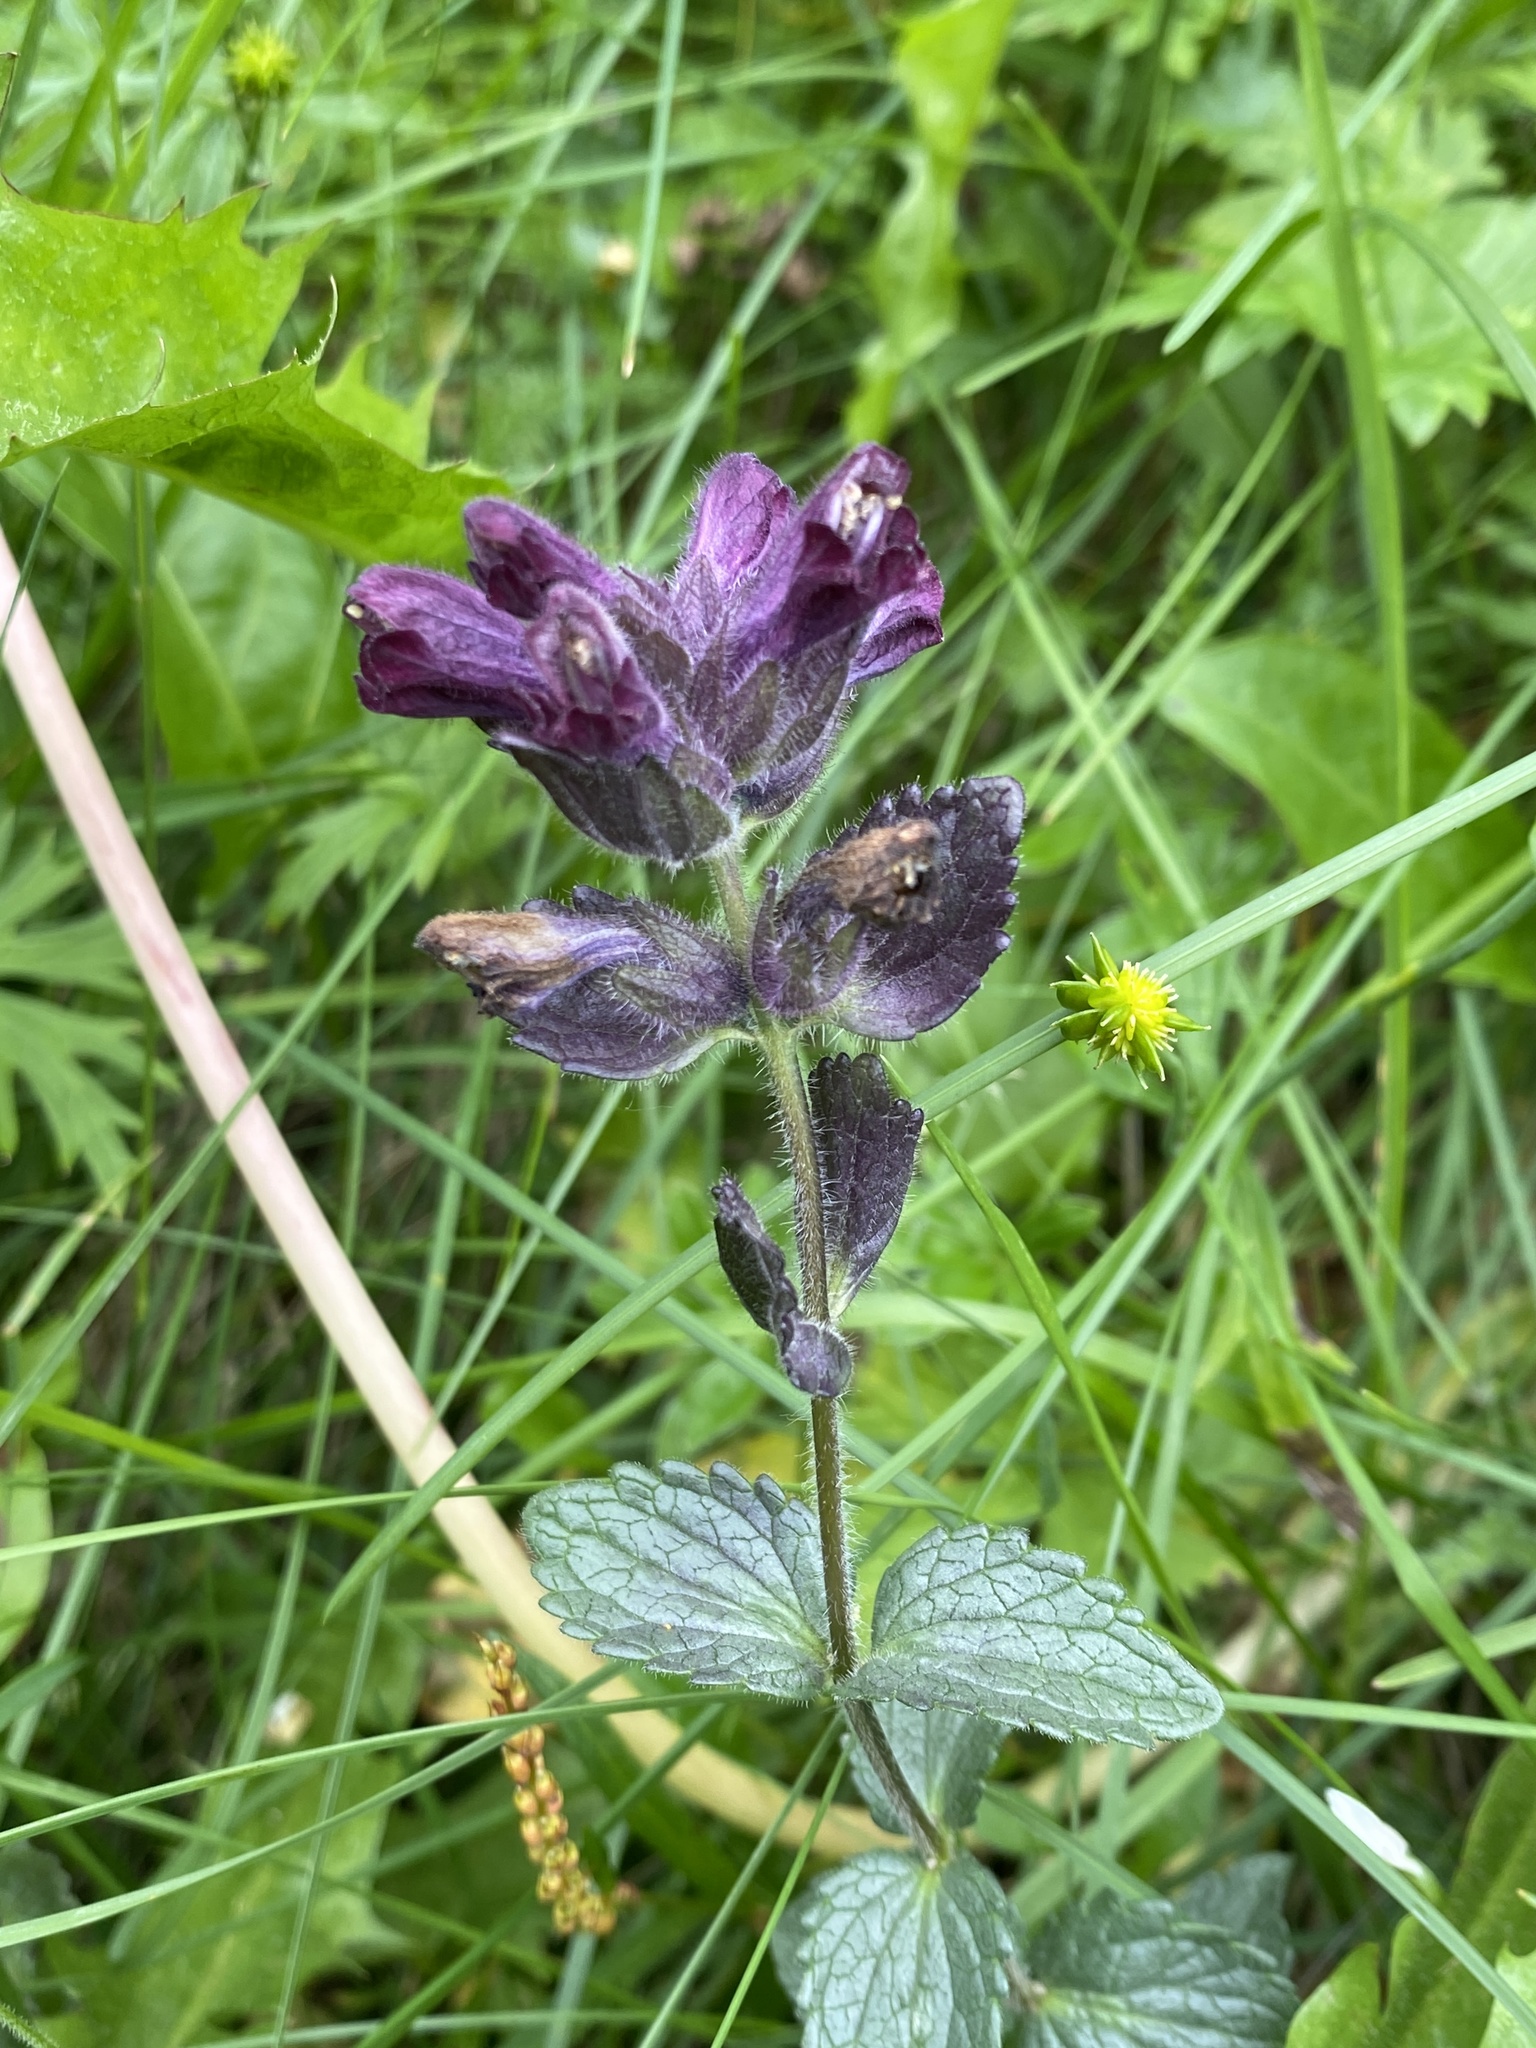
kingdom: Plantae
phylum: Tracheophyta
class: Magnoliopsida
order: Lamiales
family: Orobanchaceae
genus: Bartsia
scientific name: Bartsia alpina
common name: Alpine bartsia
